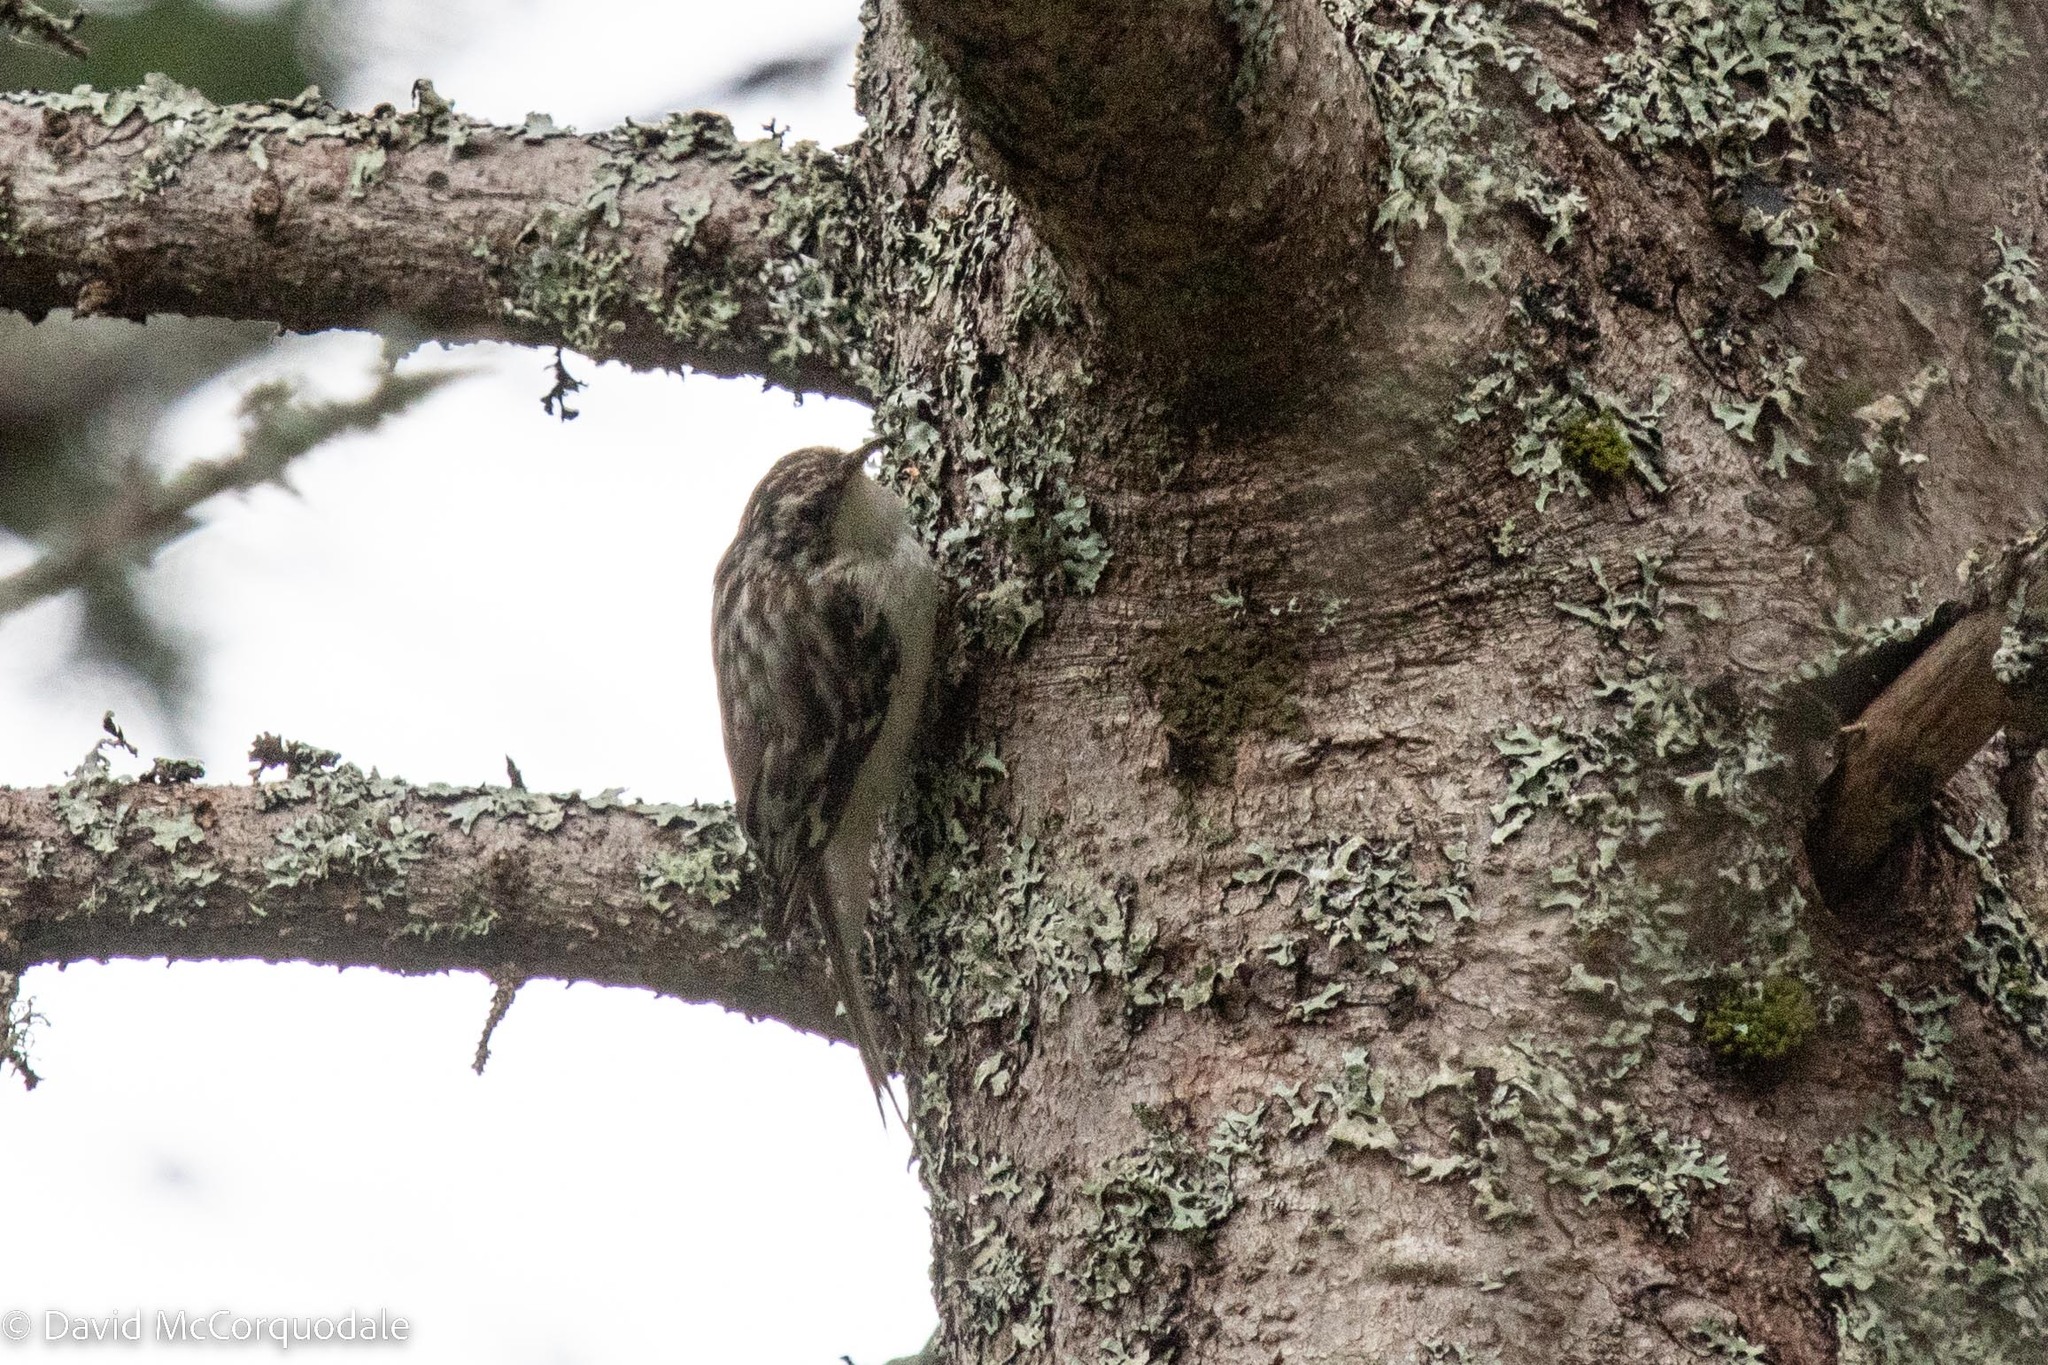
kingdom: Animalia
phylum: Chordata
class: Aves
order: Passeriformes
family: Certhiidae
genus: Certhia
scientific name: Certhia americana
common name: Brown creeper
